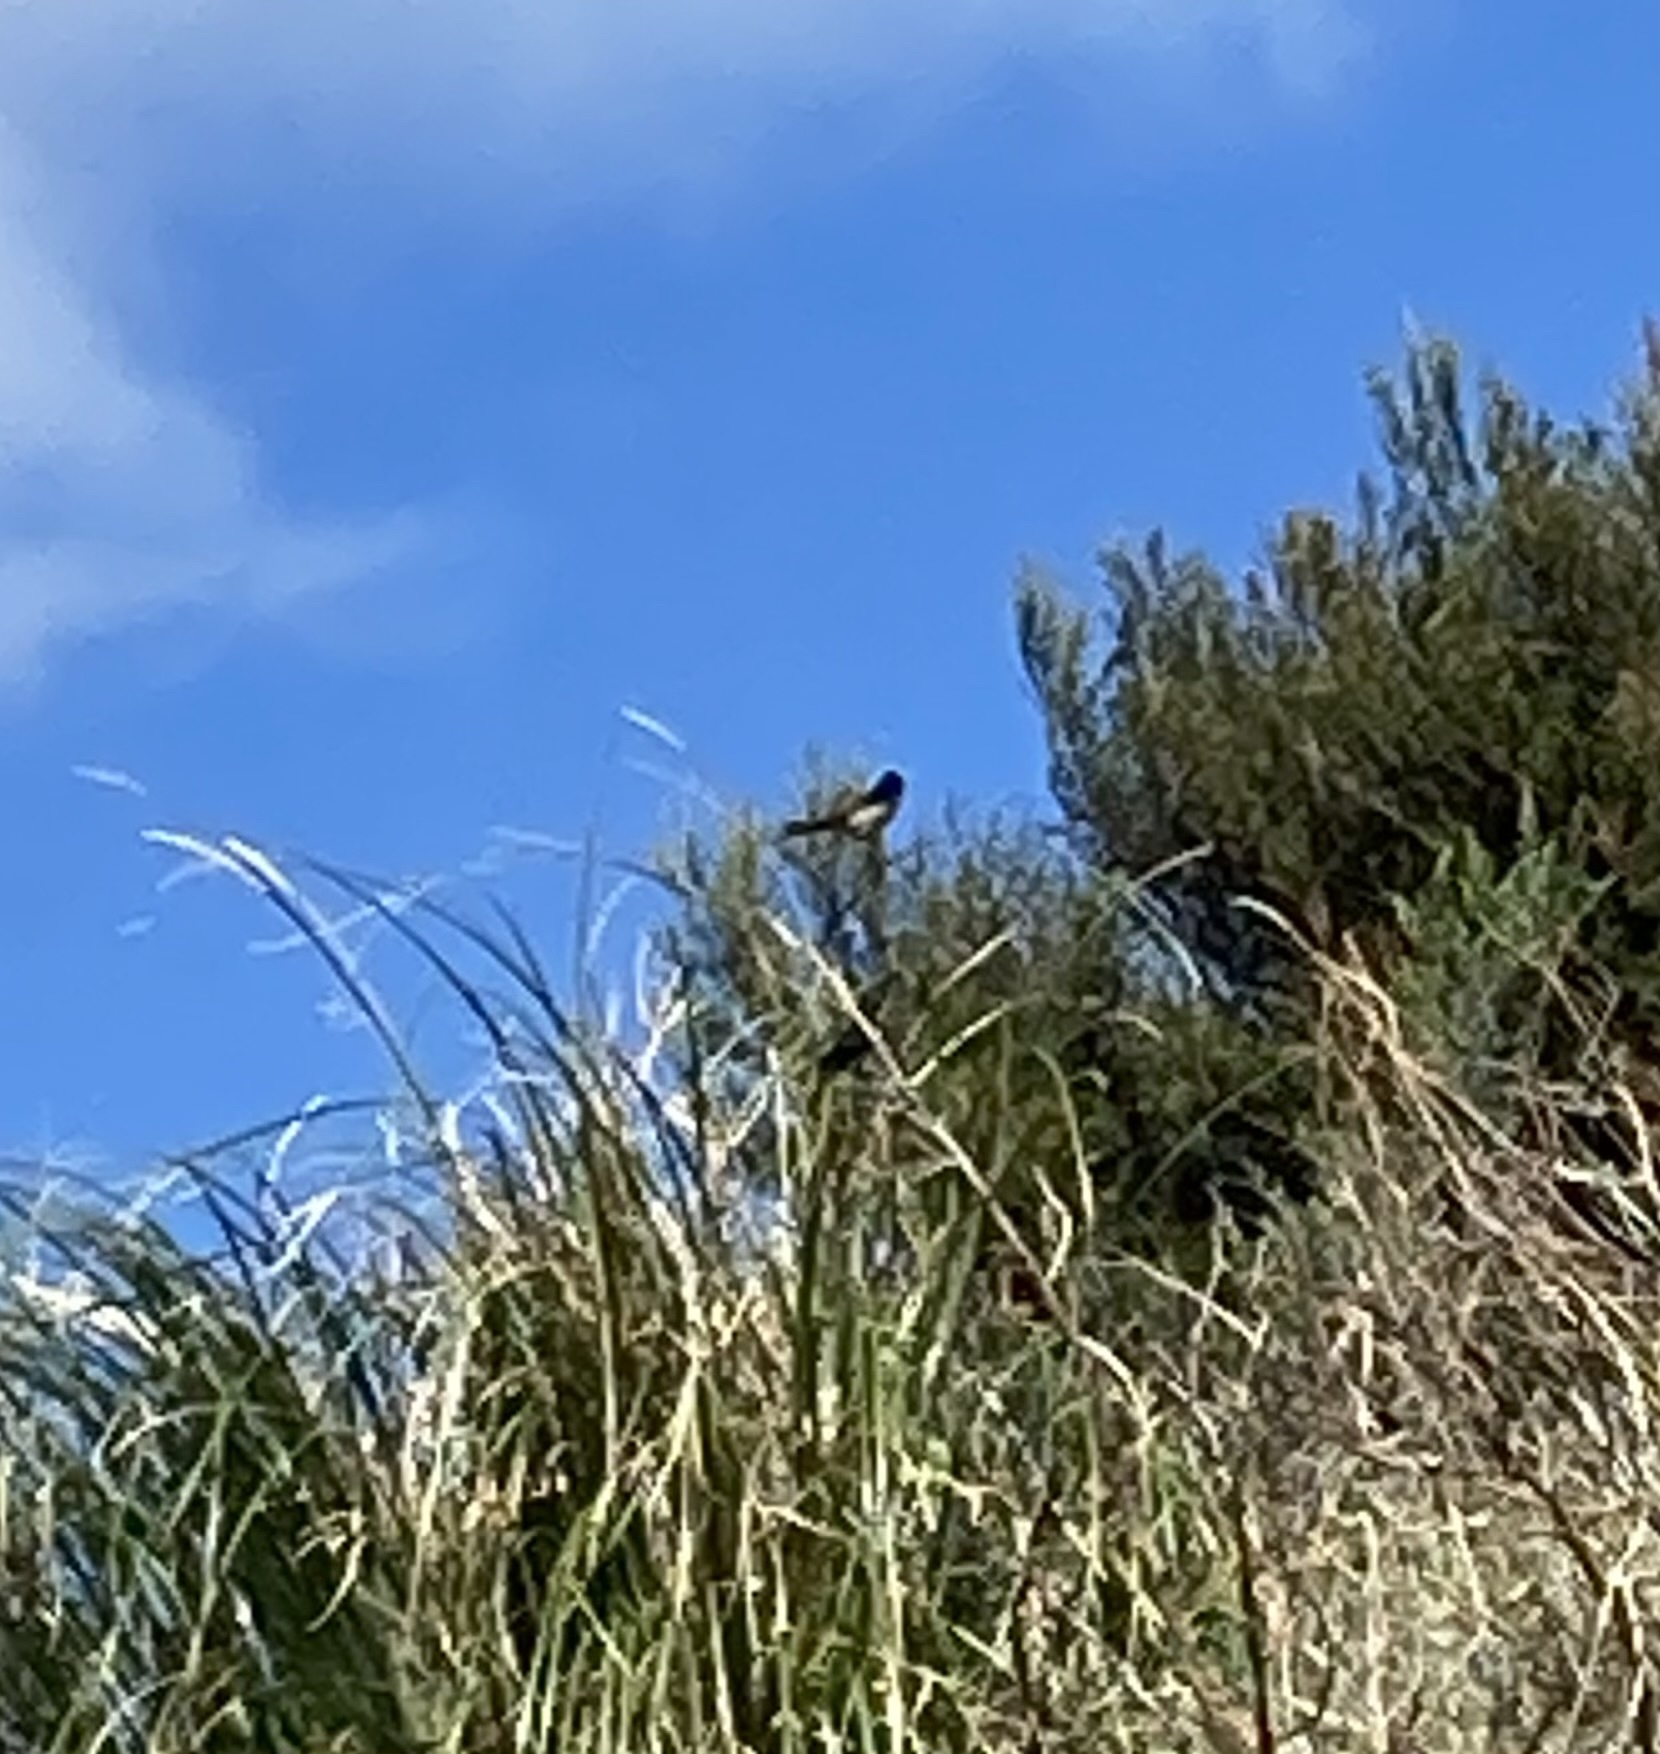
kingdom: Animalia
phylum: Chordata
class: Aves
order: Passeriformes
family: Hirundinidae
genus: Hirundo
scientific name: Hirundo neoxena
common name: Welcome swallow
